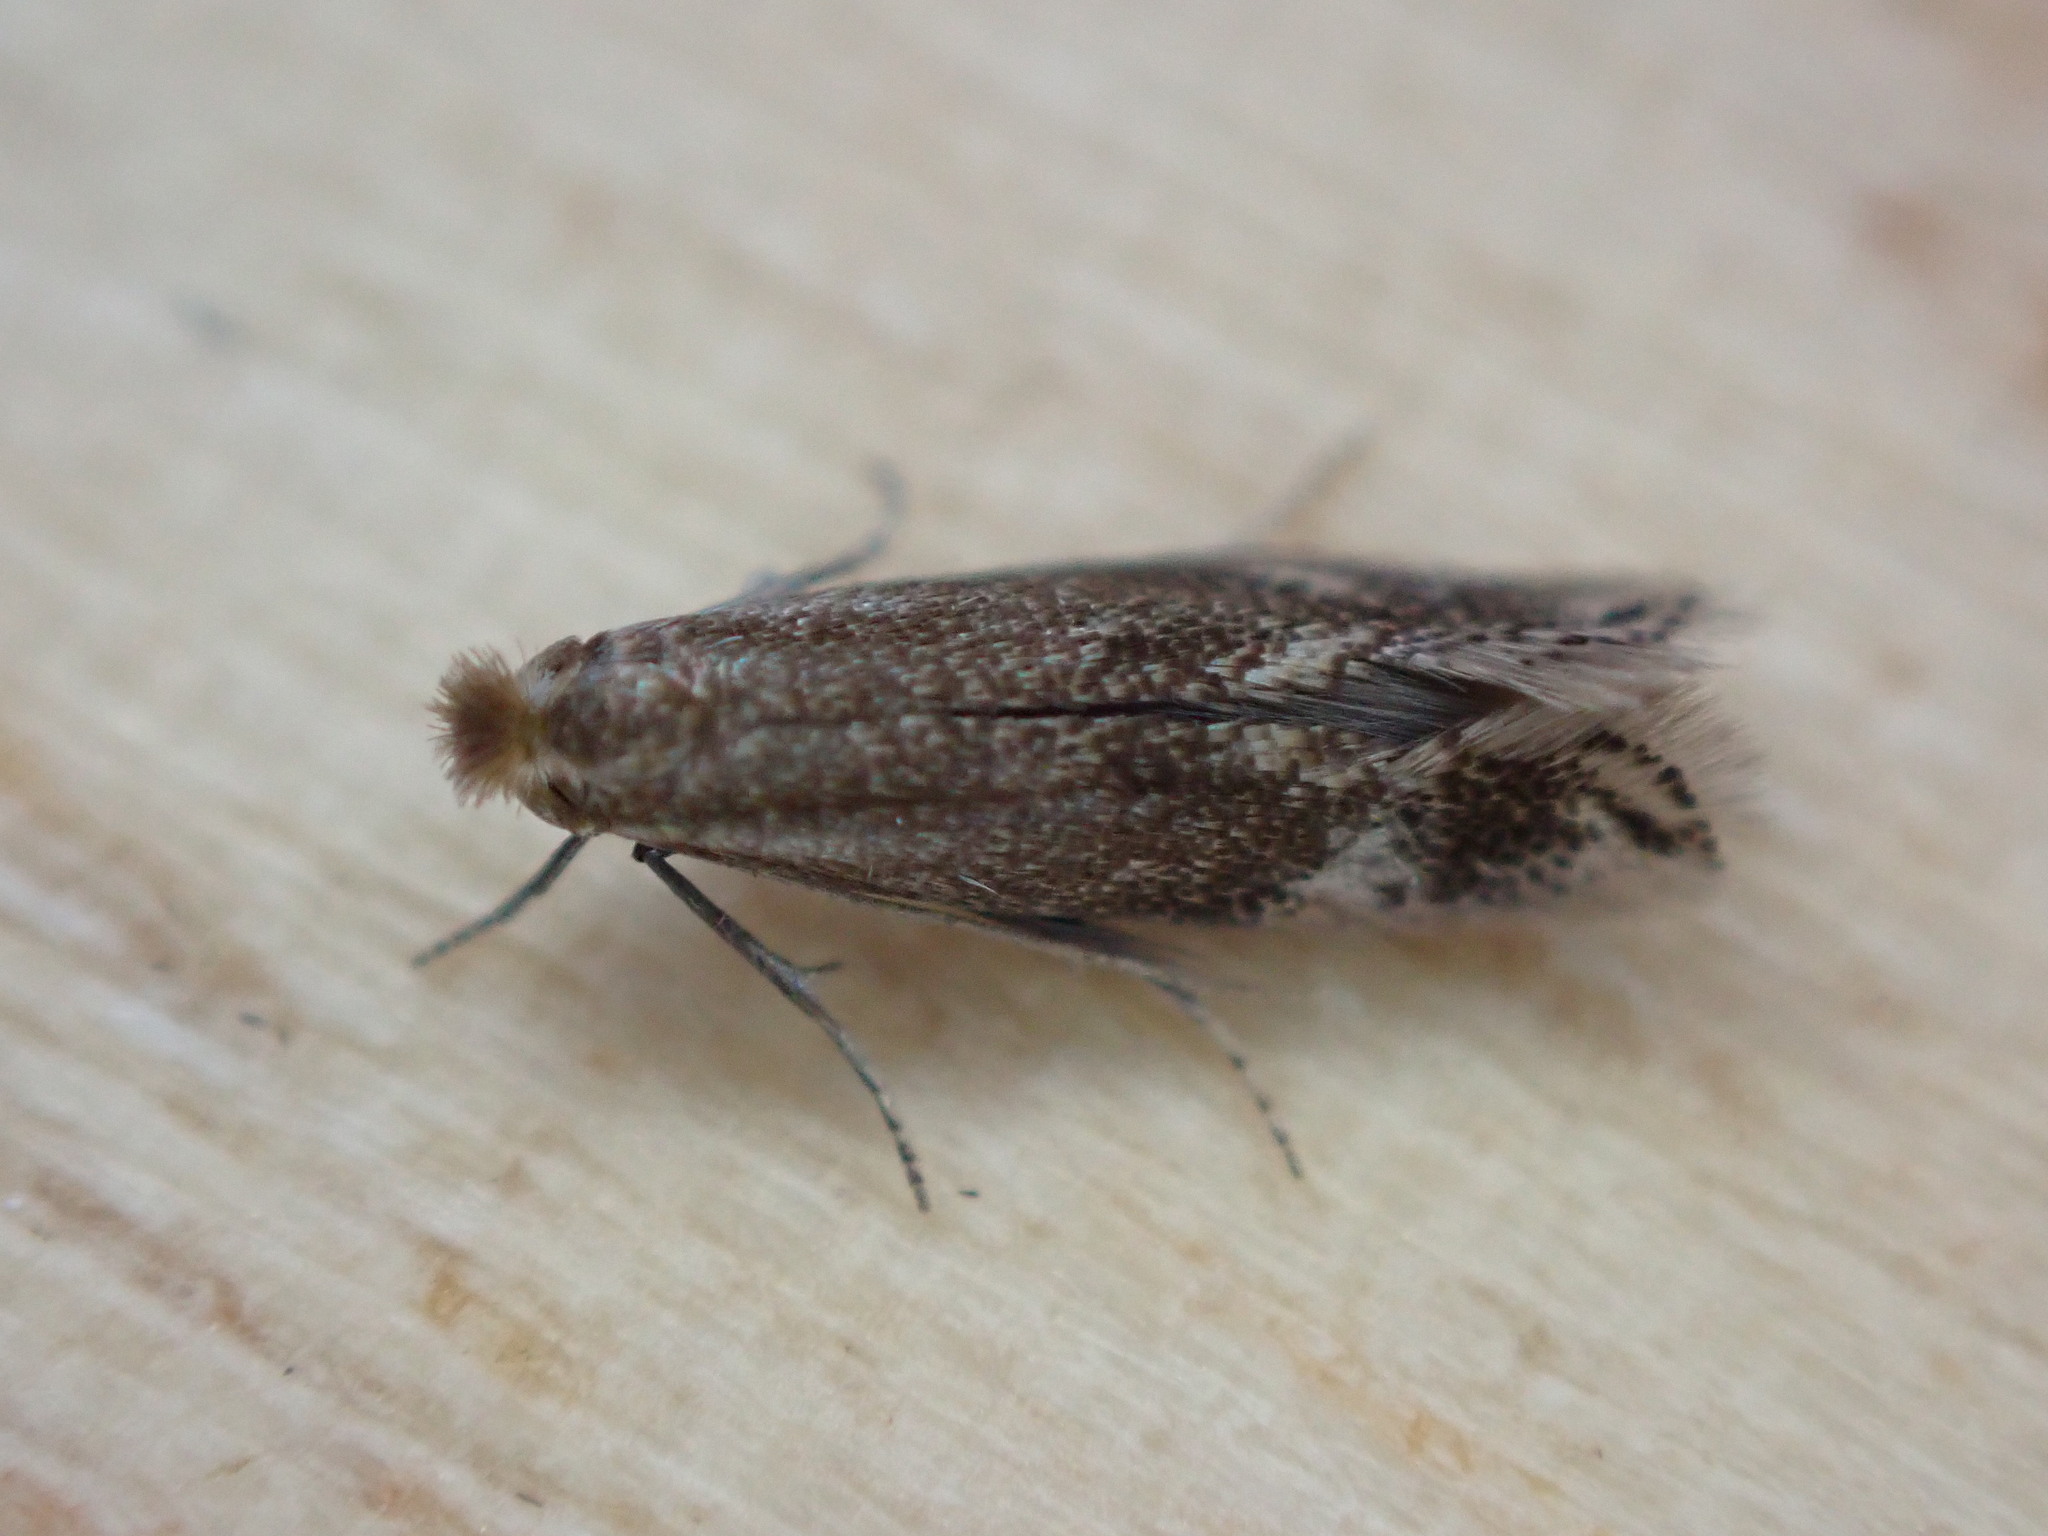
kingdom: Animalia
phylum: Arthropoda
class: Insecta
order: Lepidoptera
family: Bucculatricidae
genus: Bucculatrix
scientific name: Bucculatrix maritima
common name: Saltern bent-wing
